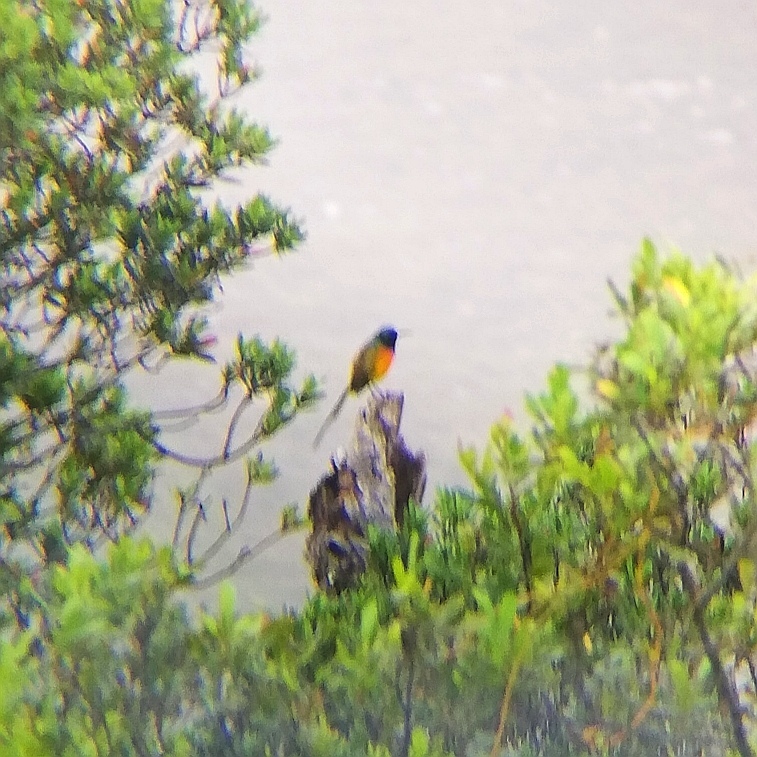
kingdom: Animalia
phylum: Chordata
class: Aves
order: Passeriformes
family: Nectariniidae
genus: Anthobaphes
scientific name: Anthobaphes violacea
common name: Orange-breasted sunbird
